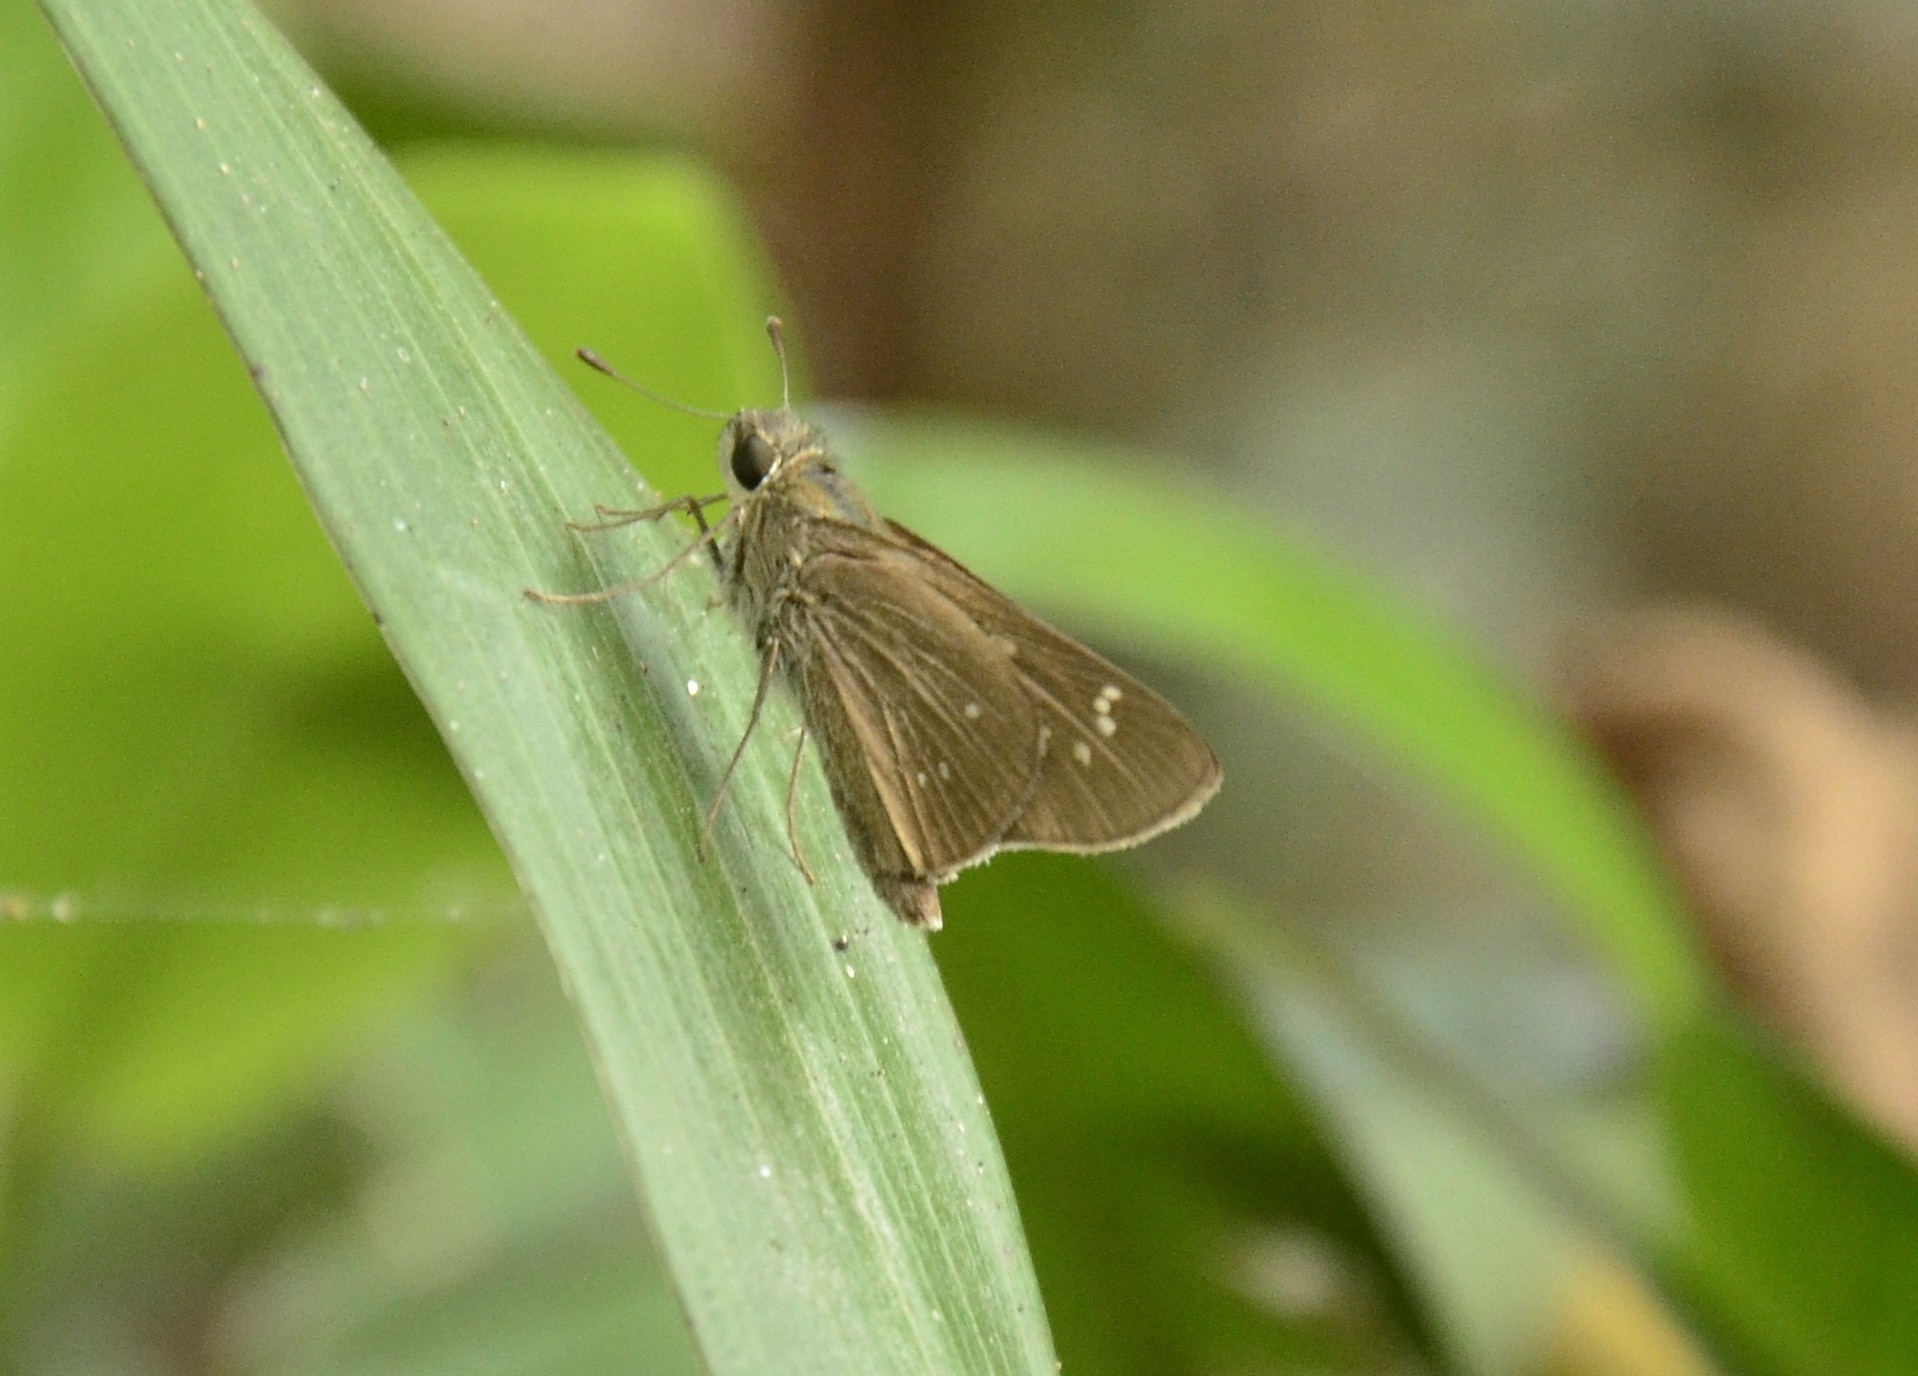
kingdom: Animalia
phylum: Arthropoda
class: Insecta
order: Lepidoptera
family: Hesperiidae
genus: Borbo
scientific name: Borbo cinnara
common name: Formosan swift
